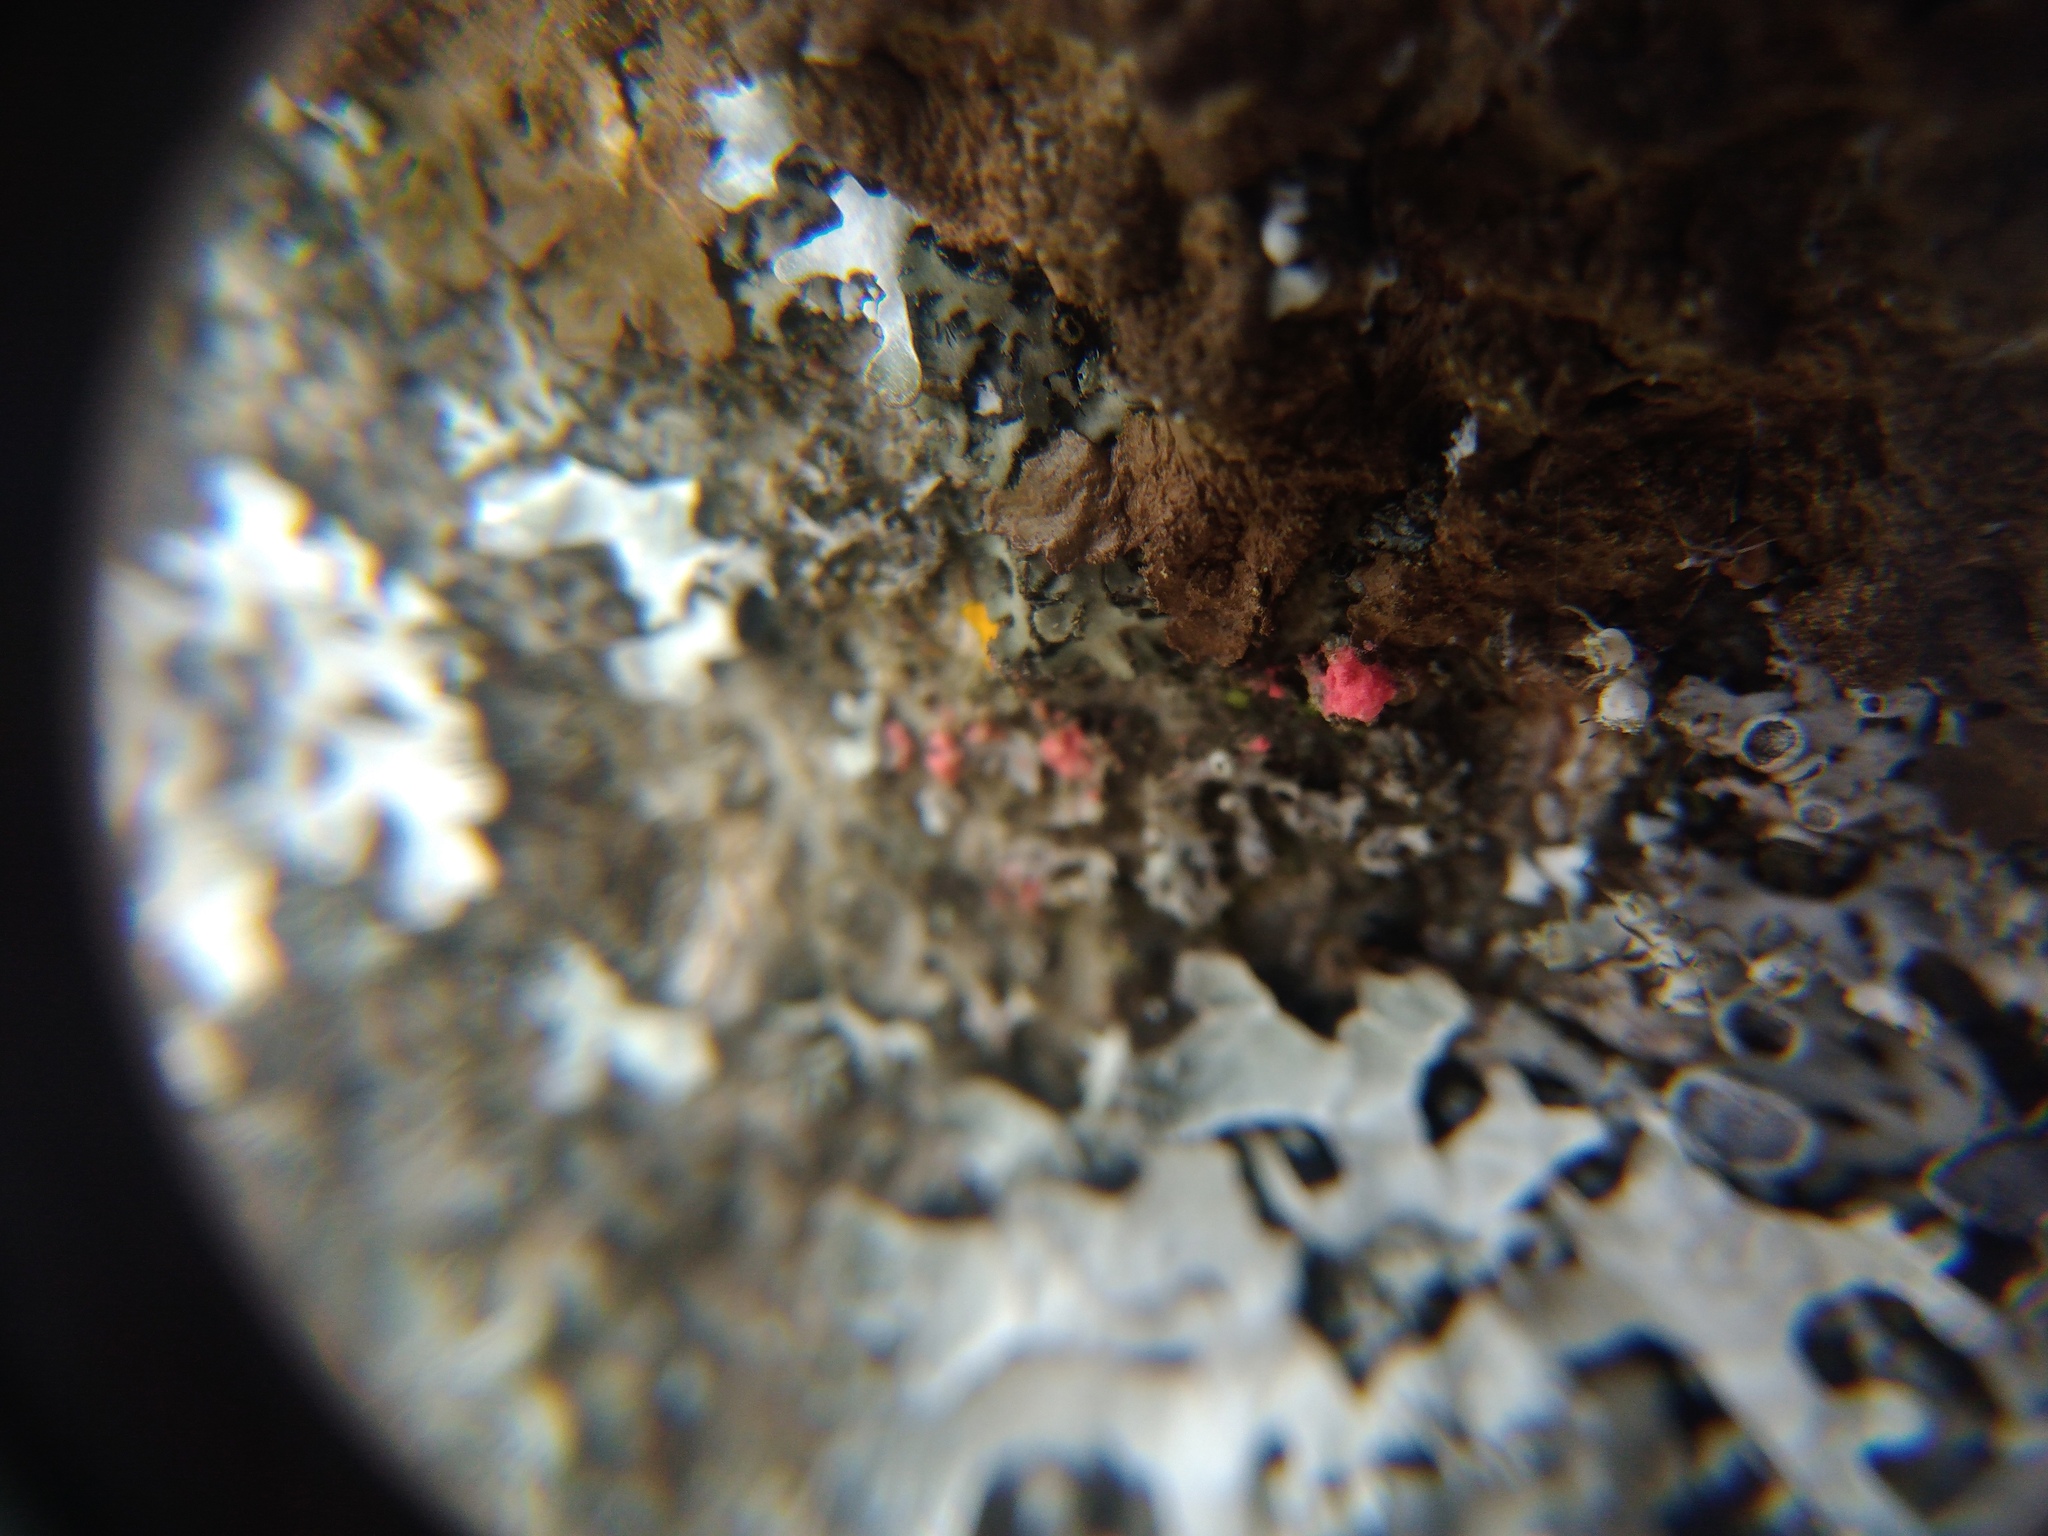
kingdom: Fungi
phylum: Ascomycota
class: Sordariomycetes
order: Hypocreales
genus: Illosporiopsis
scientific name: Illosporiopsis christiansenii
